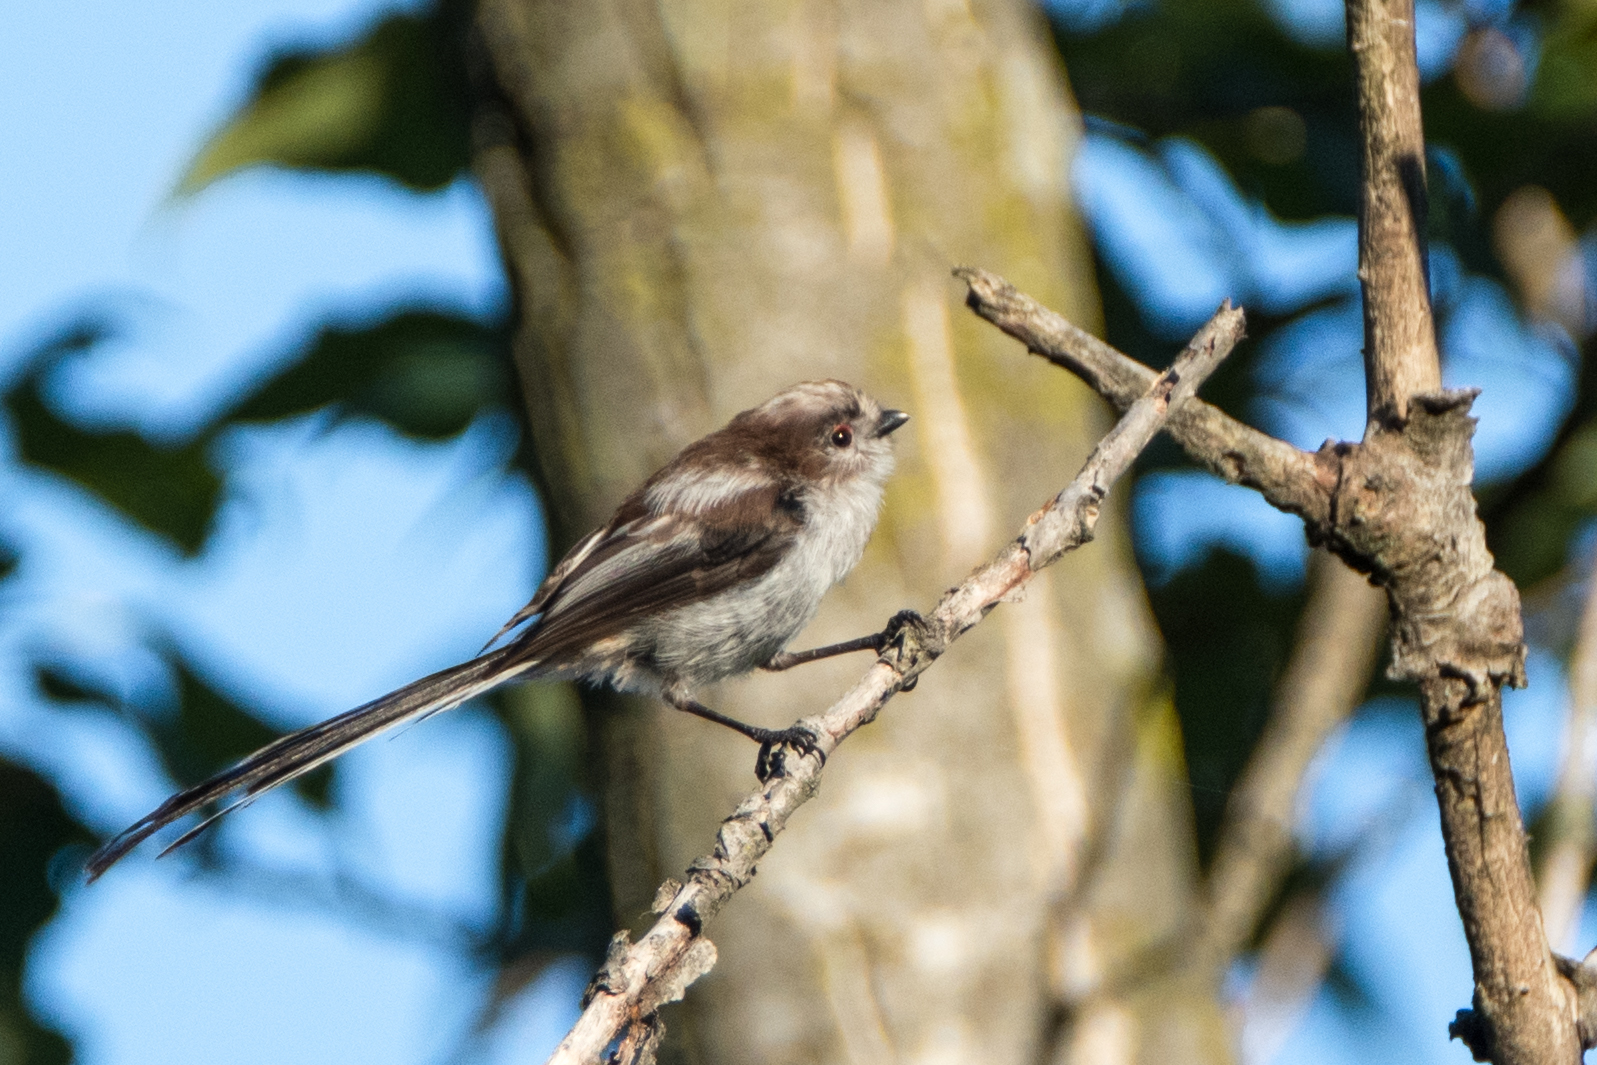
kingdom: Animalia
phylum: Chordata
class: Aves
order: Passeriformes
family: Aegithalidae
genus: Aegithalos
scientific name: Aegithalos caudatus
